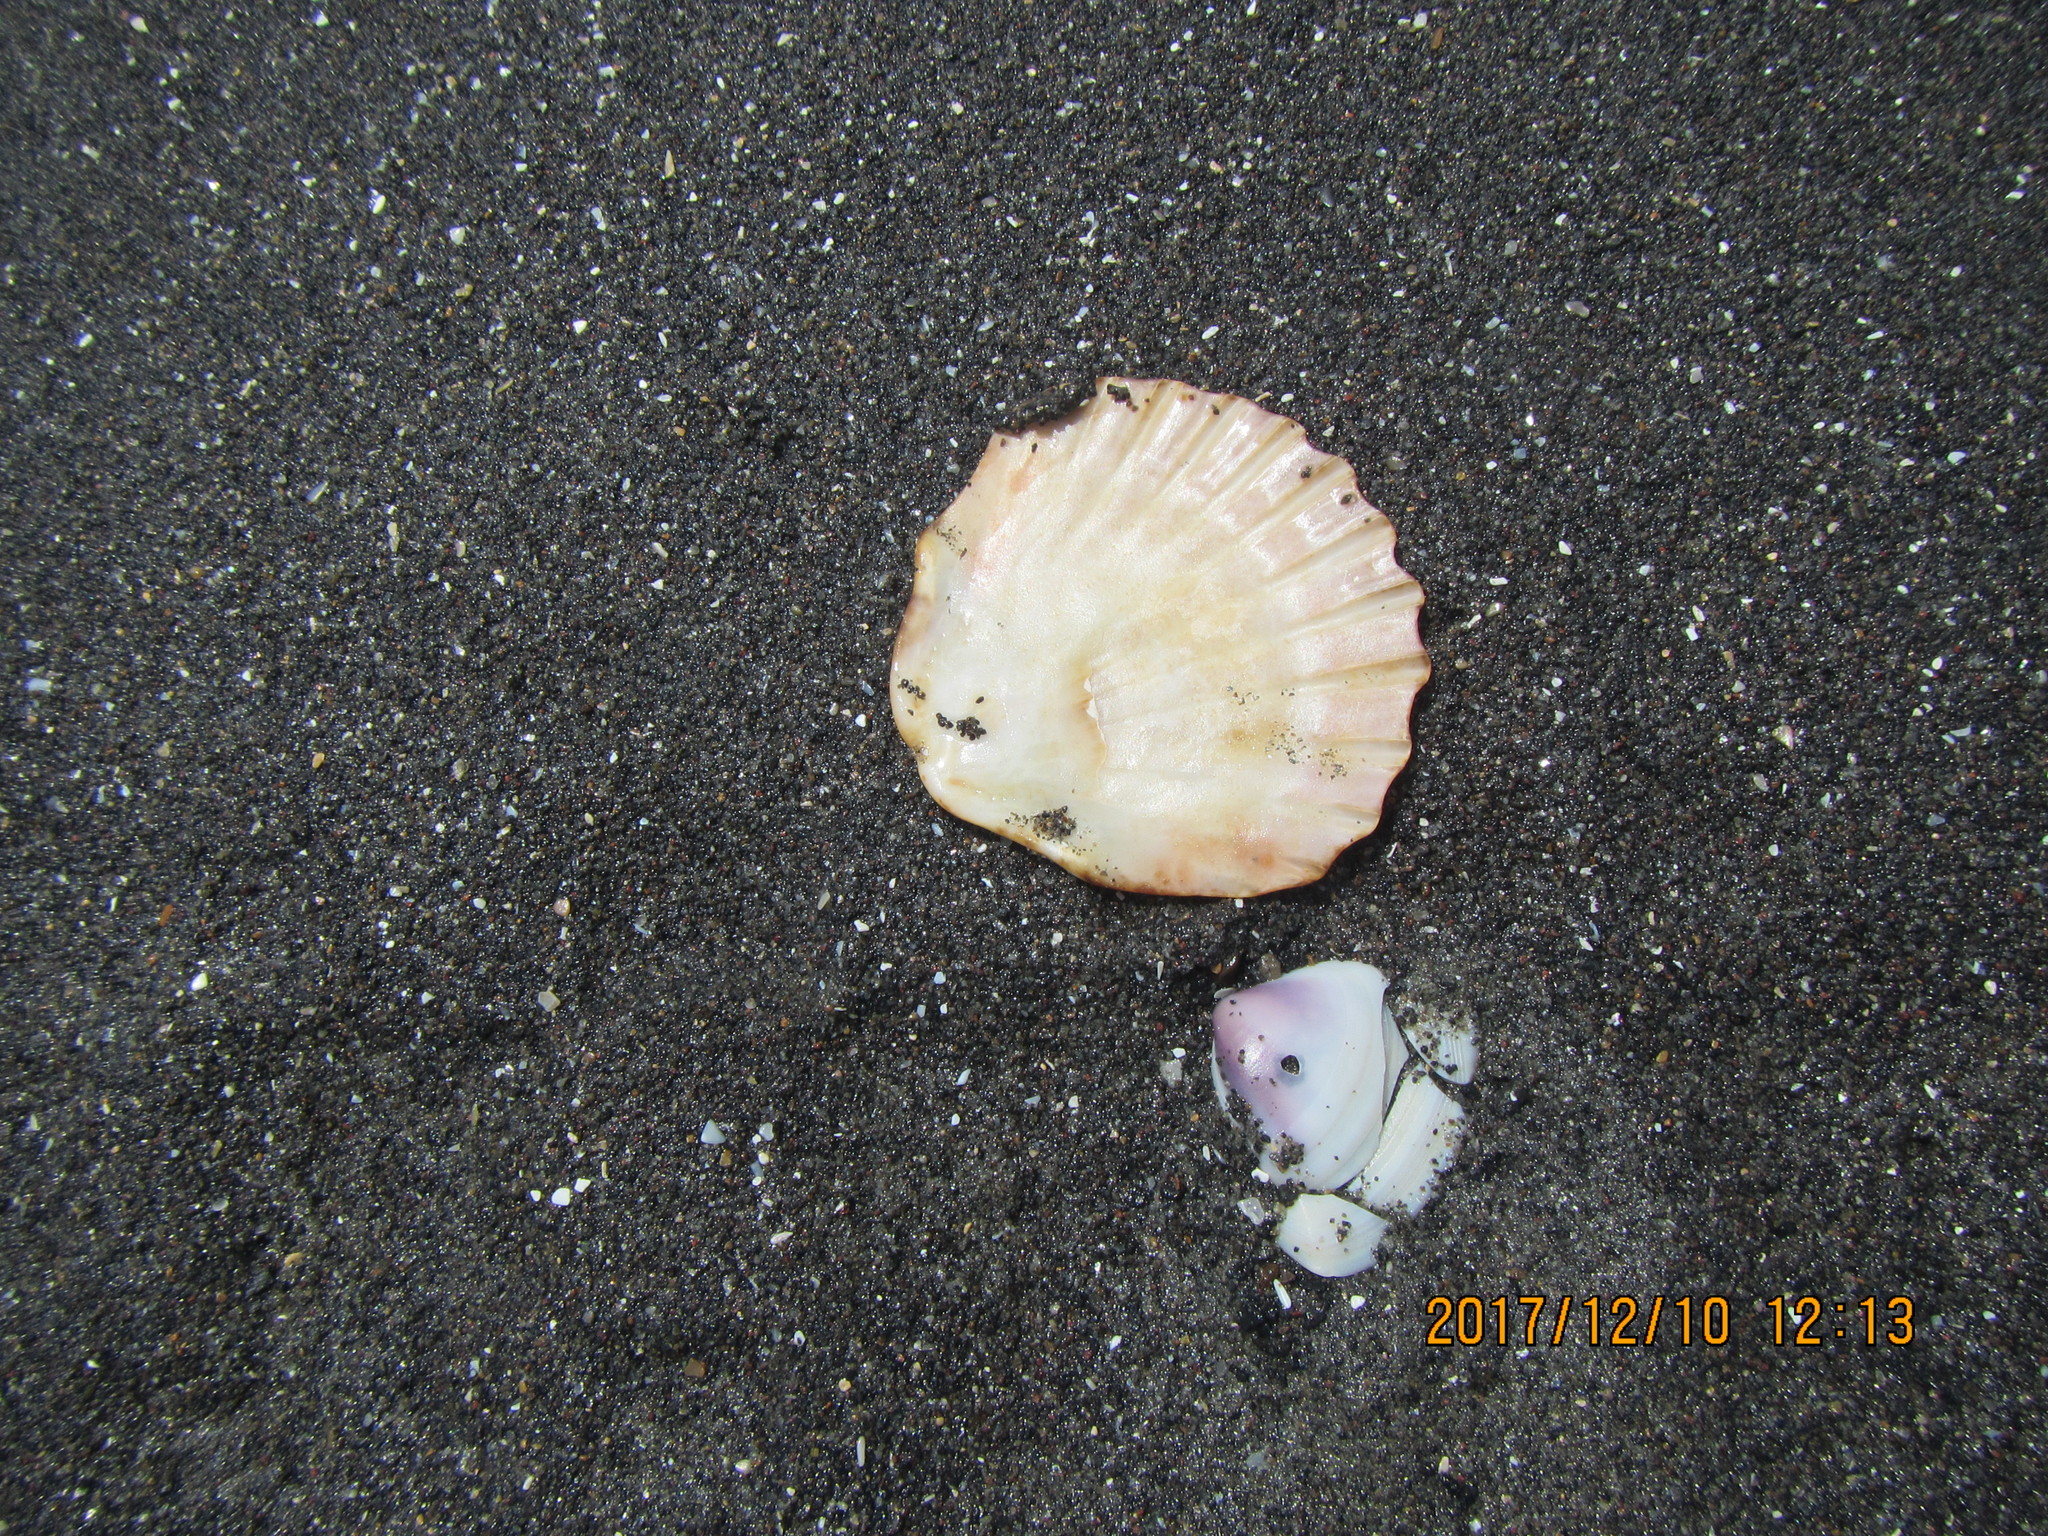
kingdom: Animalia
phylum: Mollusca
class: Bivalvia
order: Pectinida
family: Pectinidae
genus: Pecten
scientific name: Pecten novaezelandiae
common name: New zealand scallop
